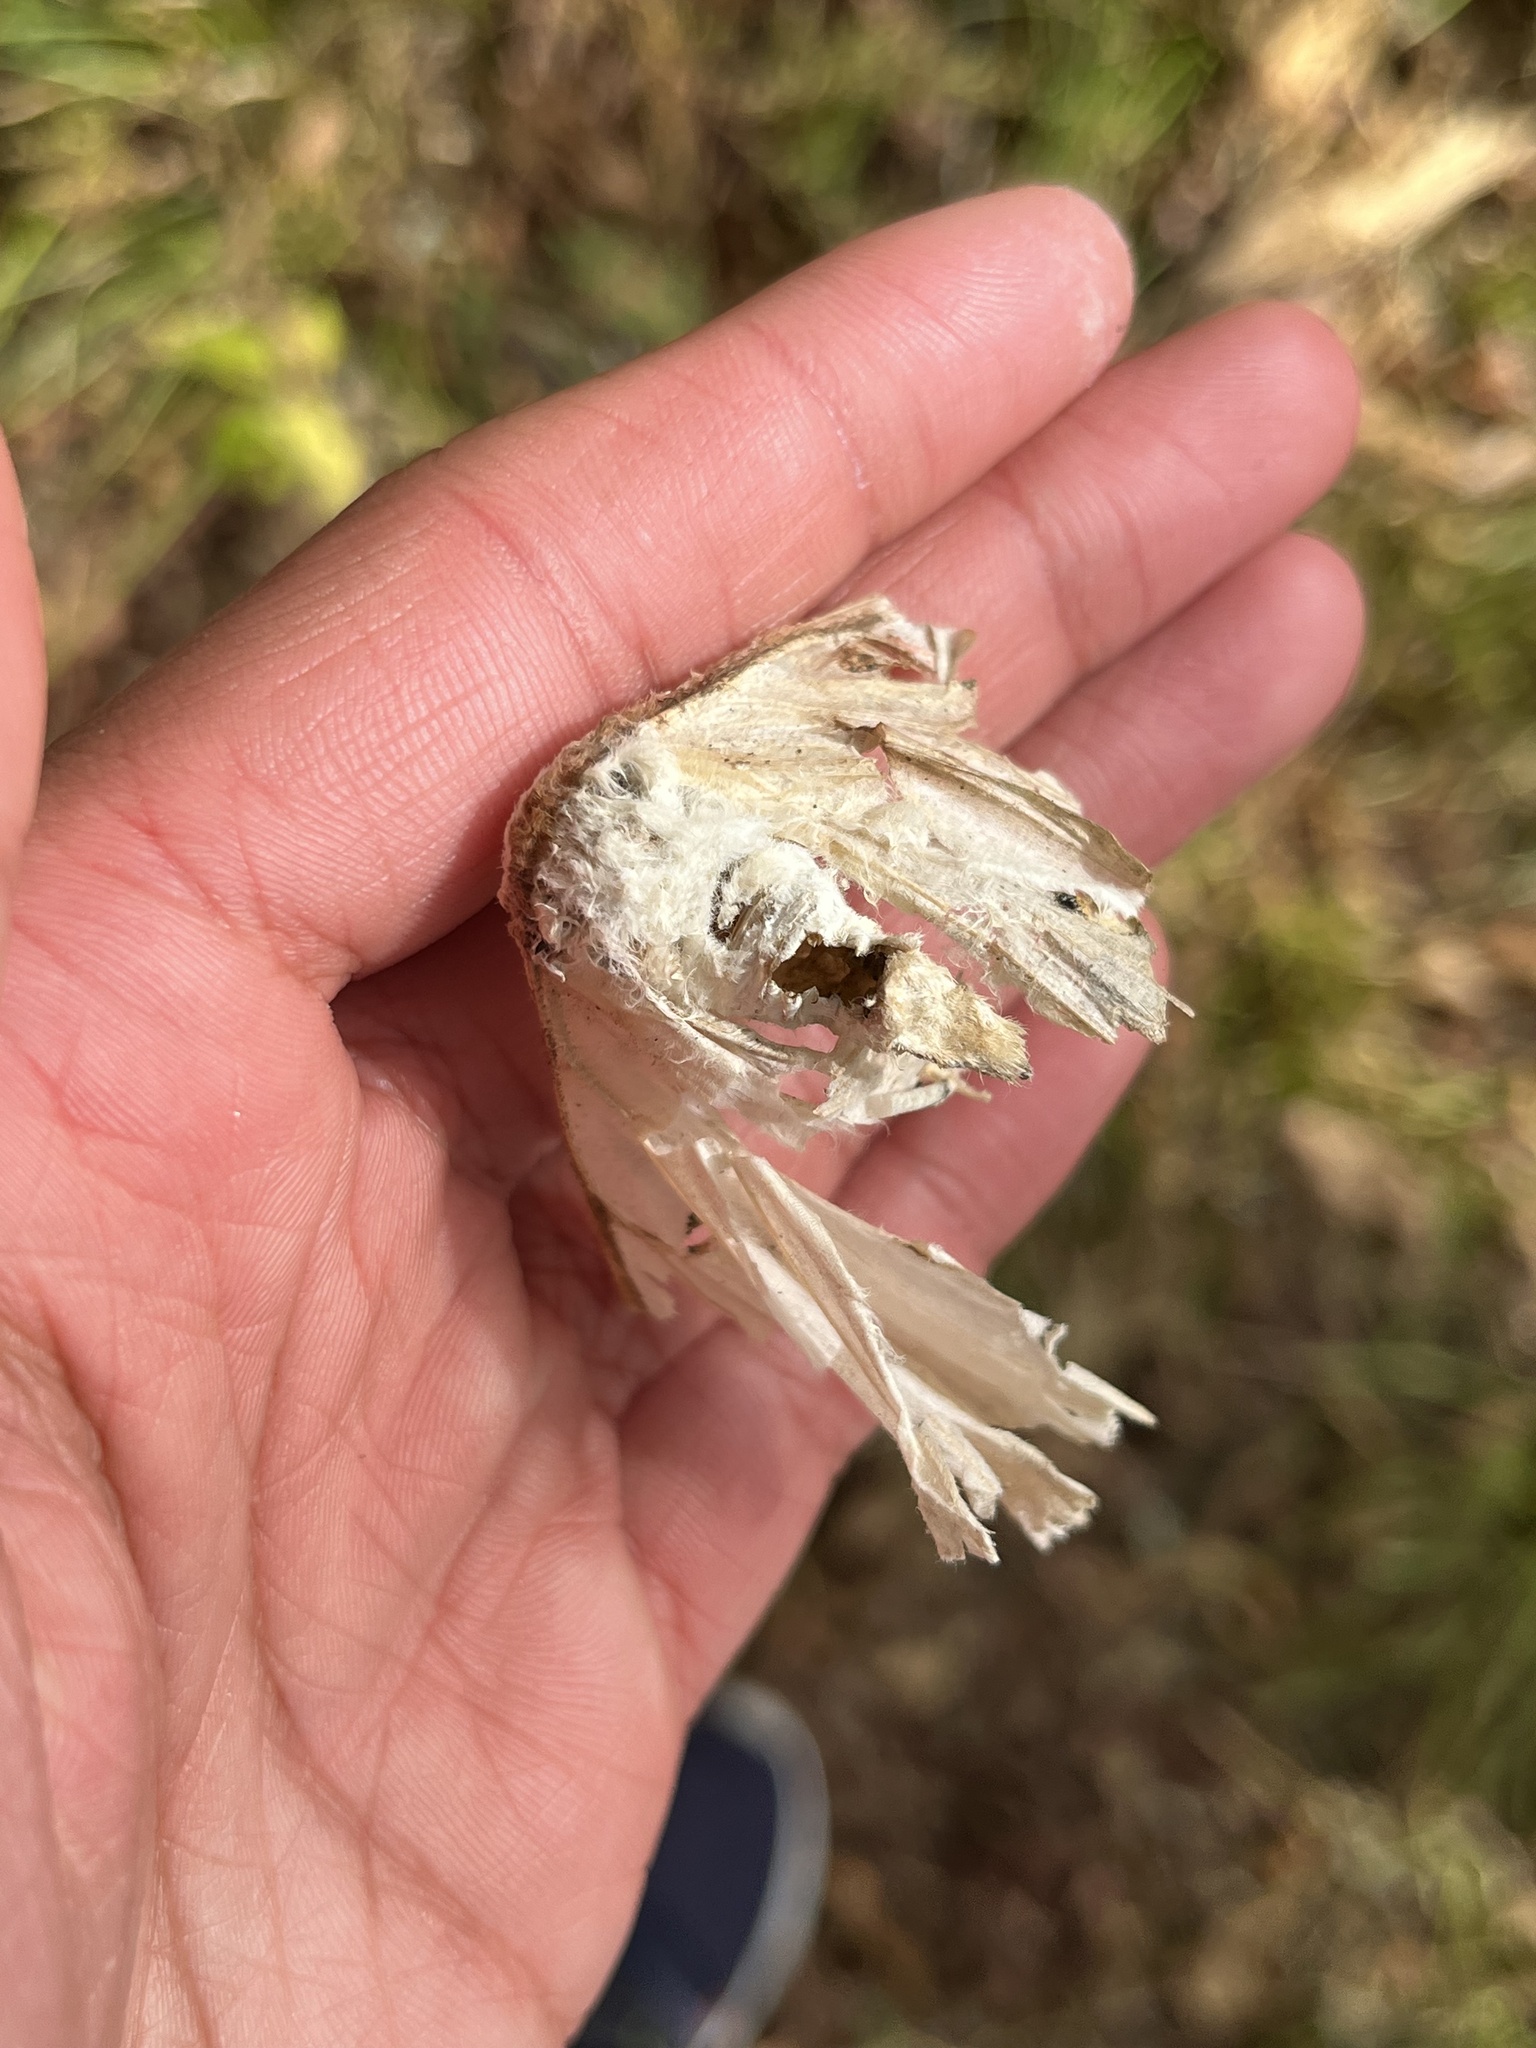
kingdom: Animalia
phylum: Arthropoda
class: Insecta
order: Lepidoptera
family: Saturniidae
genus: Actias
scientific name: Actias luna
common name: Luna moth
